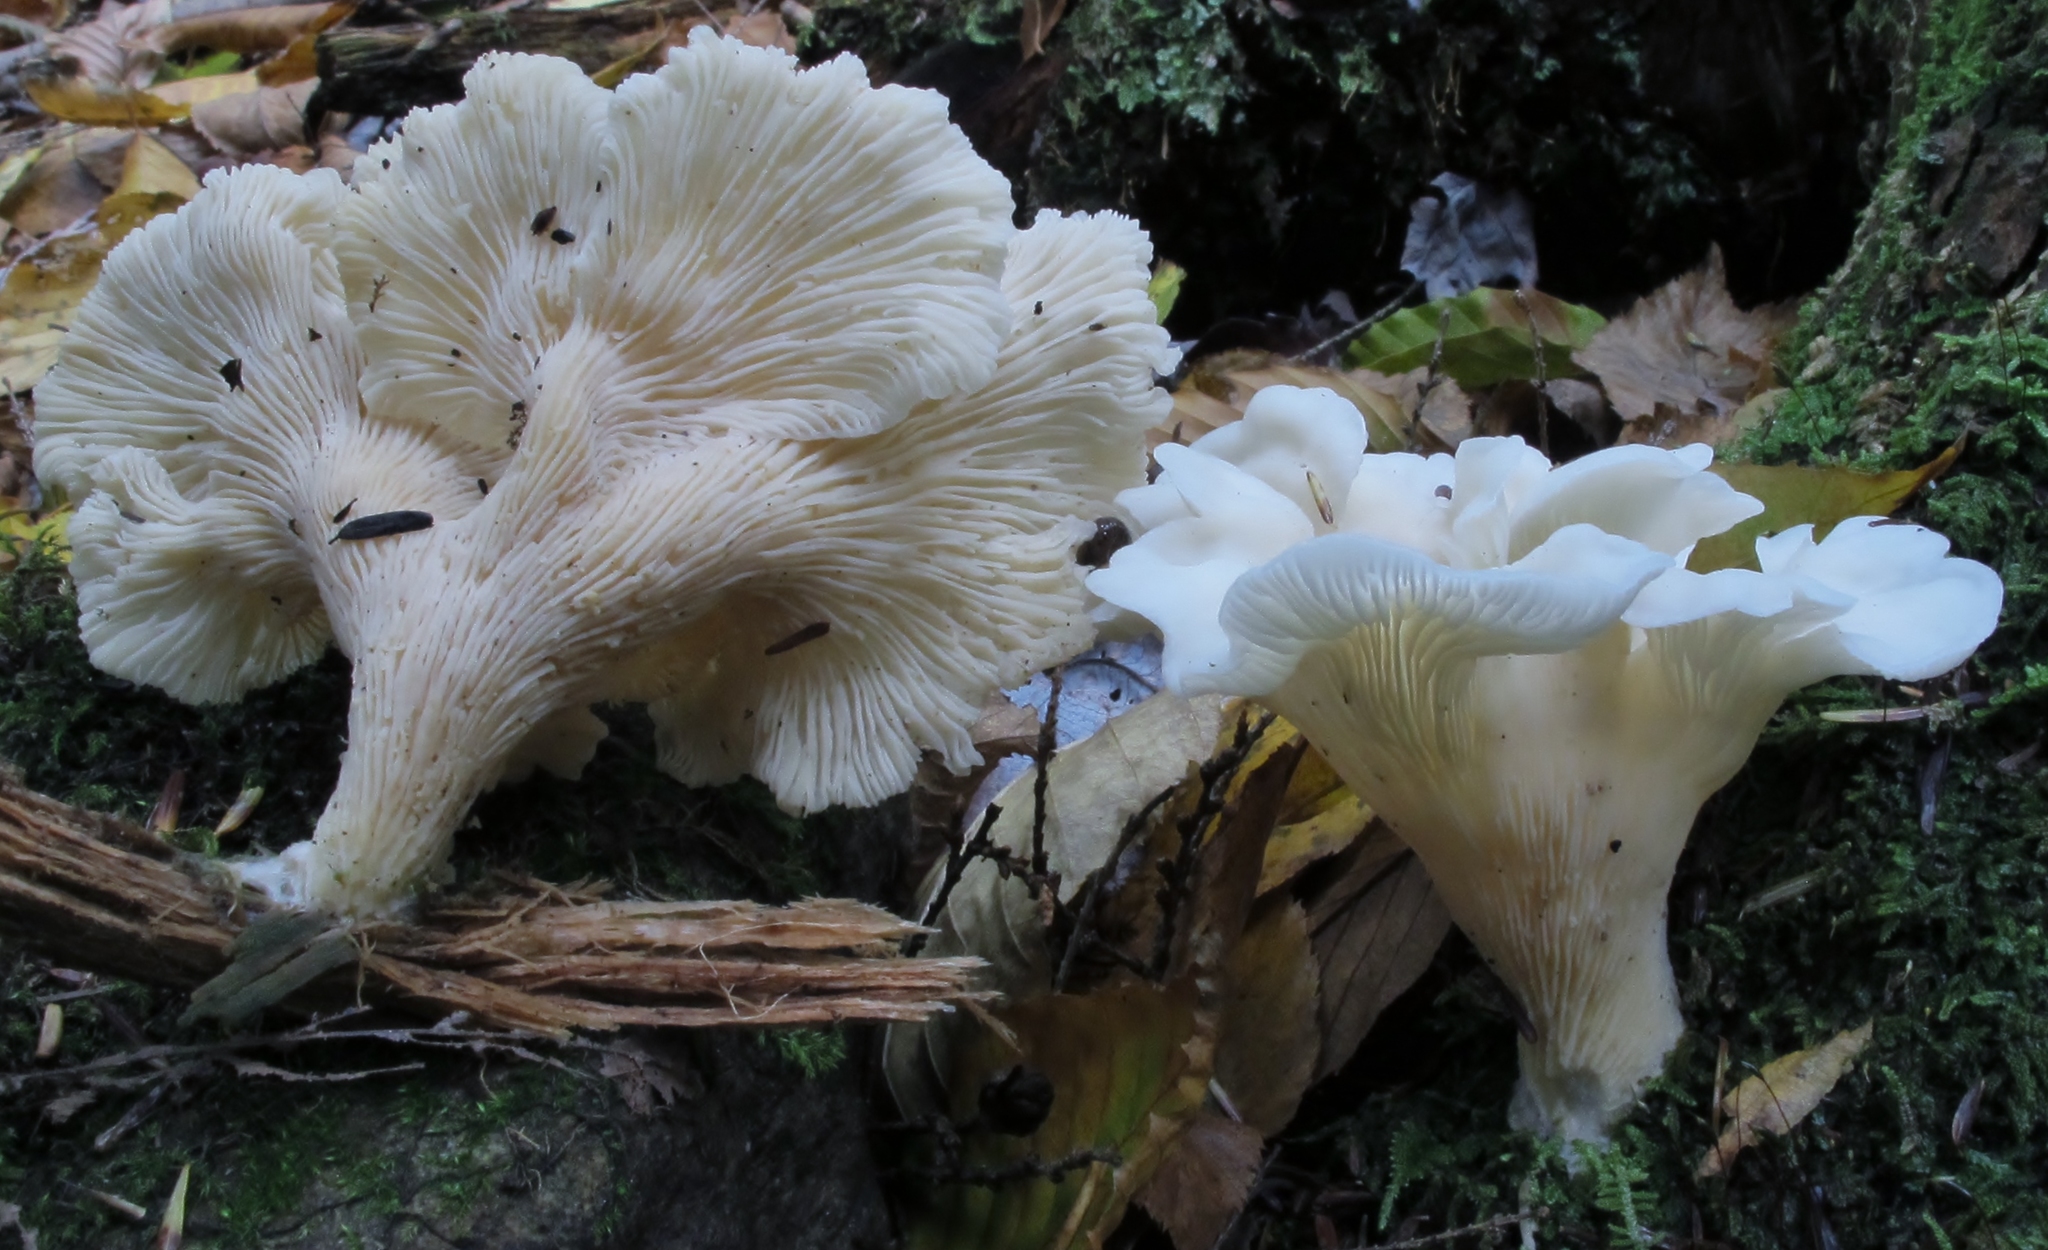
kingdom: Fungi
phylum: Basidiomycota
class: Agaricomycetes
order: Agaricales
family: Marasmiaceae
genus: Pleurocybella
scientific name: Pleurocybella porrigens
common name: Angel's wings
